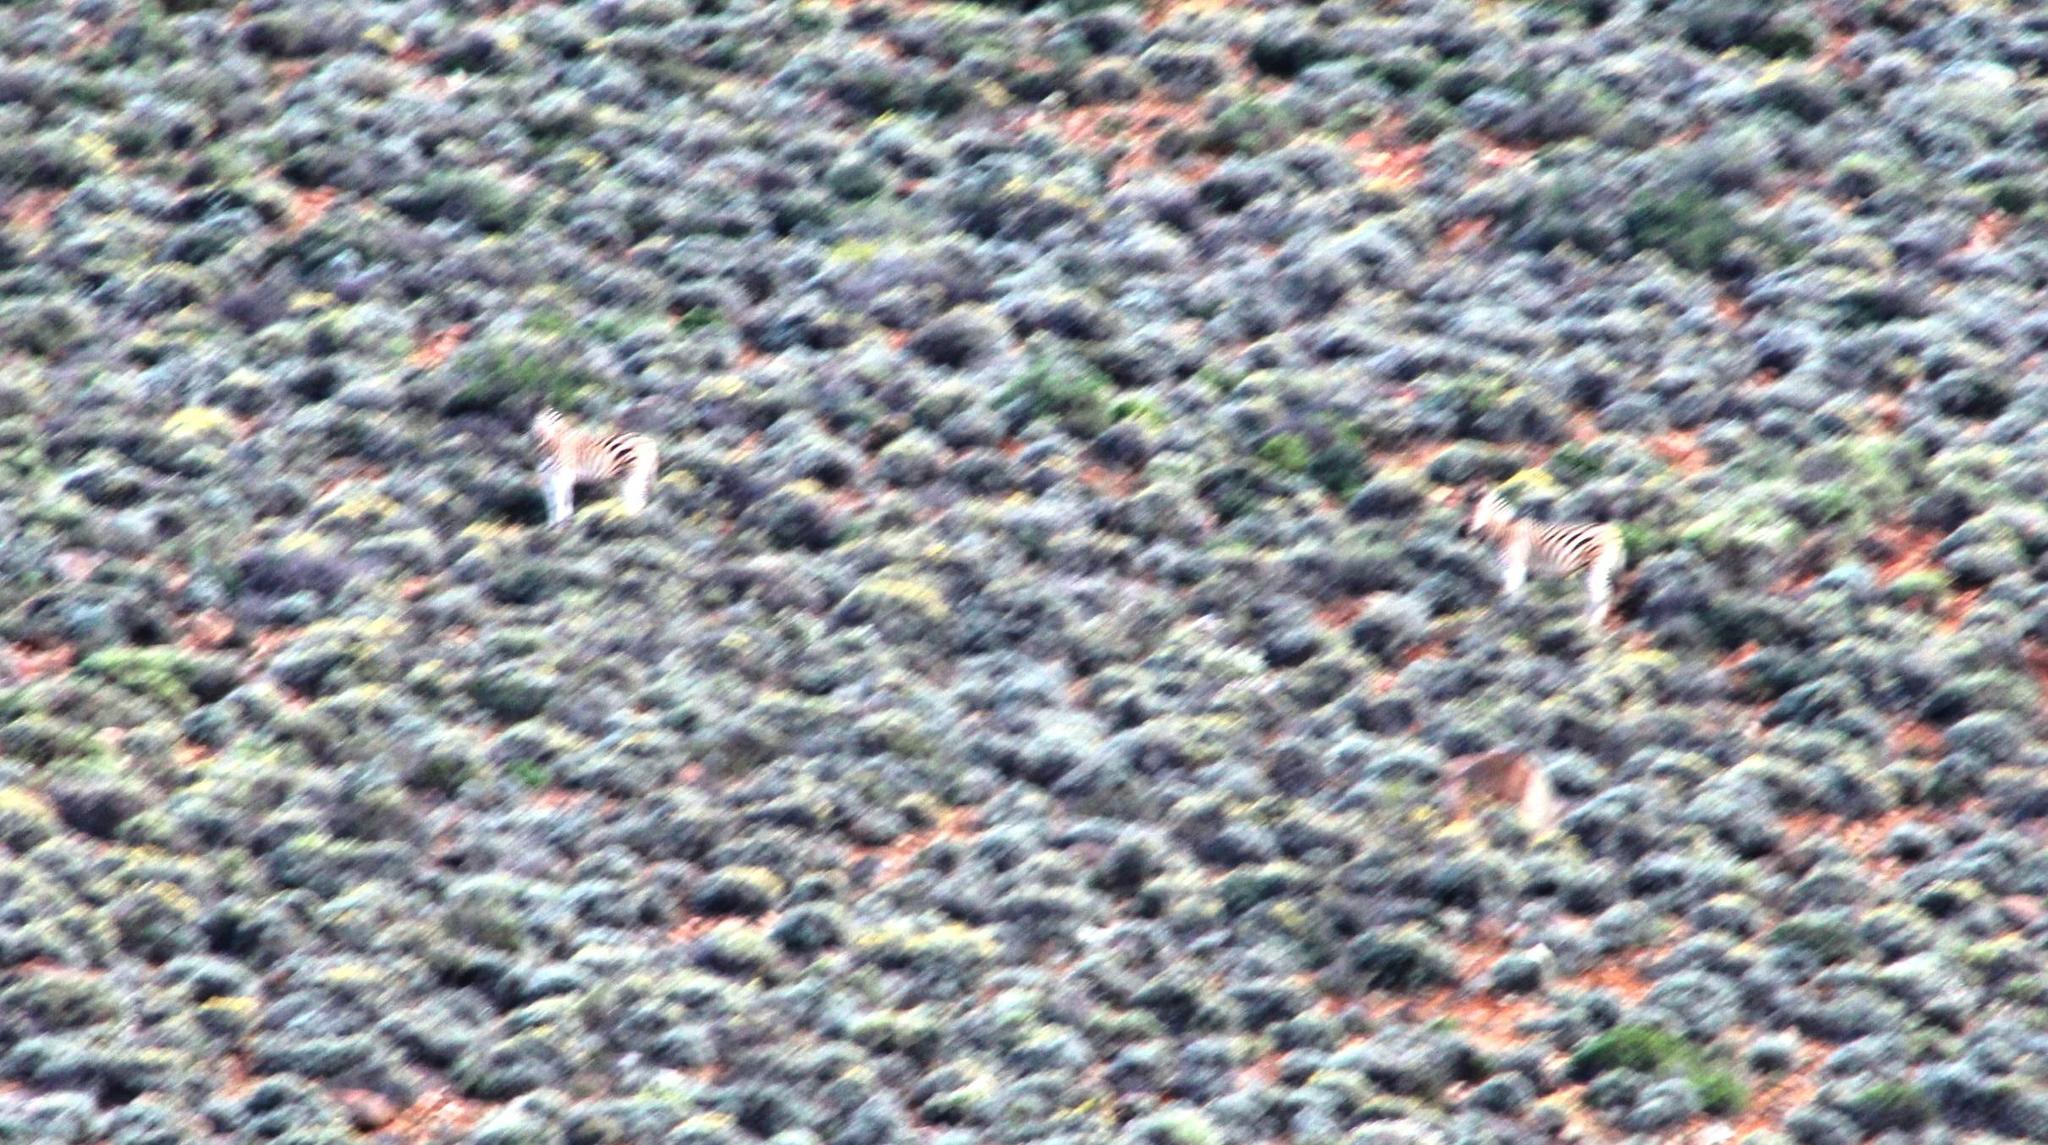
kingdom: Animalia
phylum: Chordata
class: Mammalia
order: Perissodactyla
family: Equidae
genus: Equus
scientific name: Equus quagga
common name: Plains zebra
